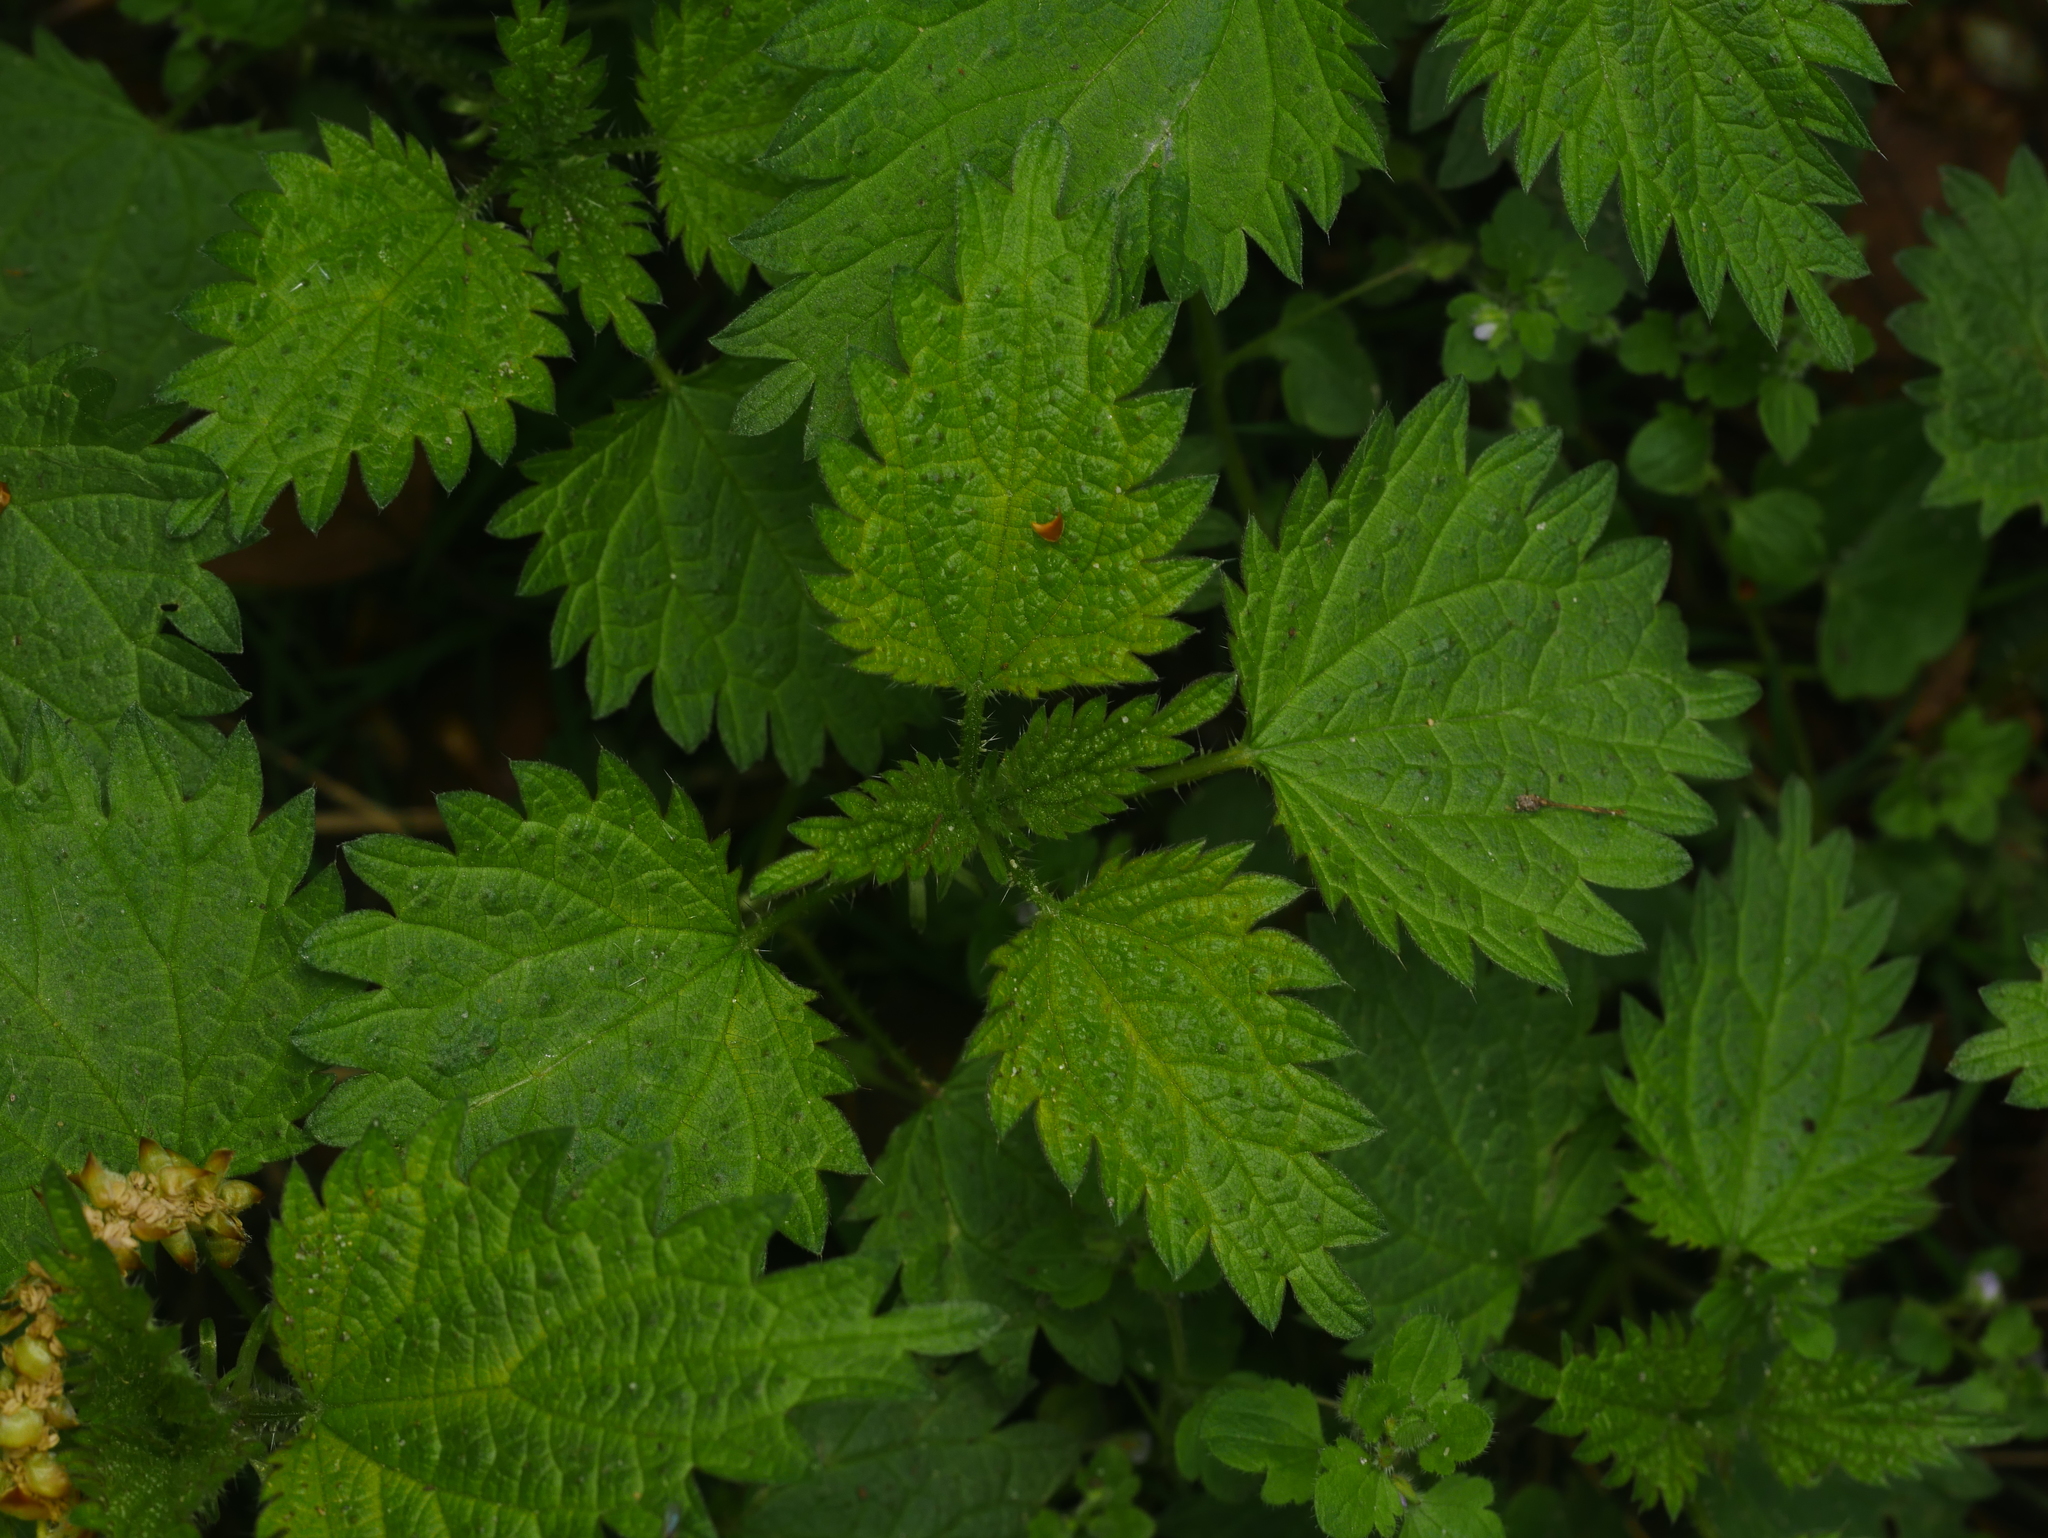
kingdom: Plantae
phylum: Tracheophyta
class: Magnoliopsida
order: Rosales
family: Urticaceae
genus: Urtica
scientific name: Urtica dioica
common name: Common nettle
